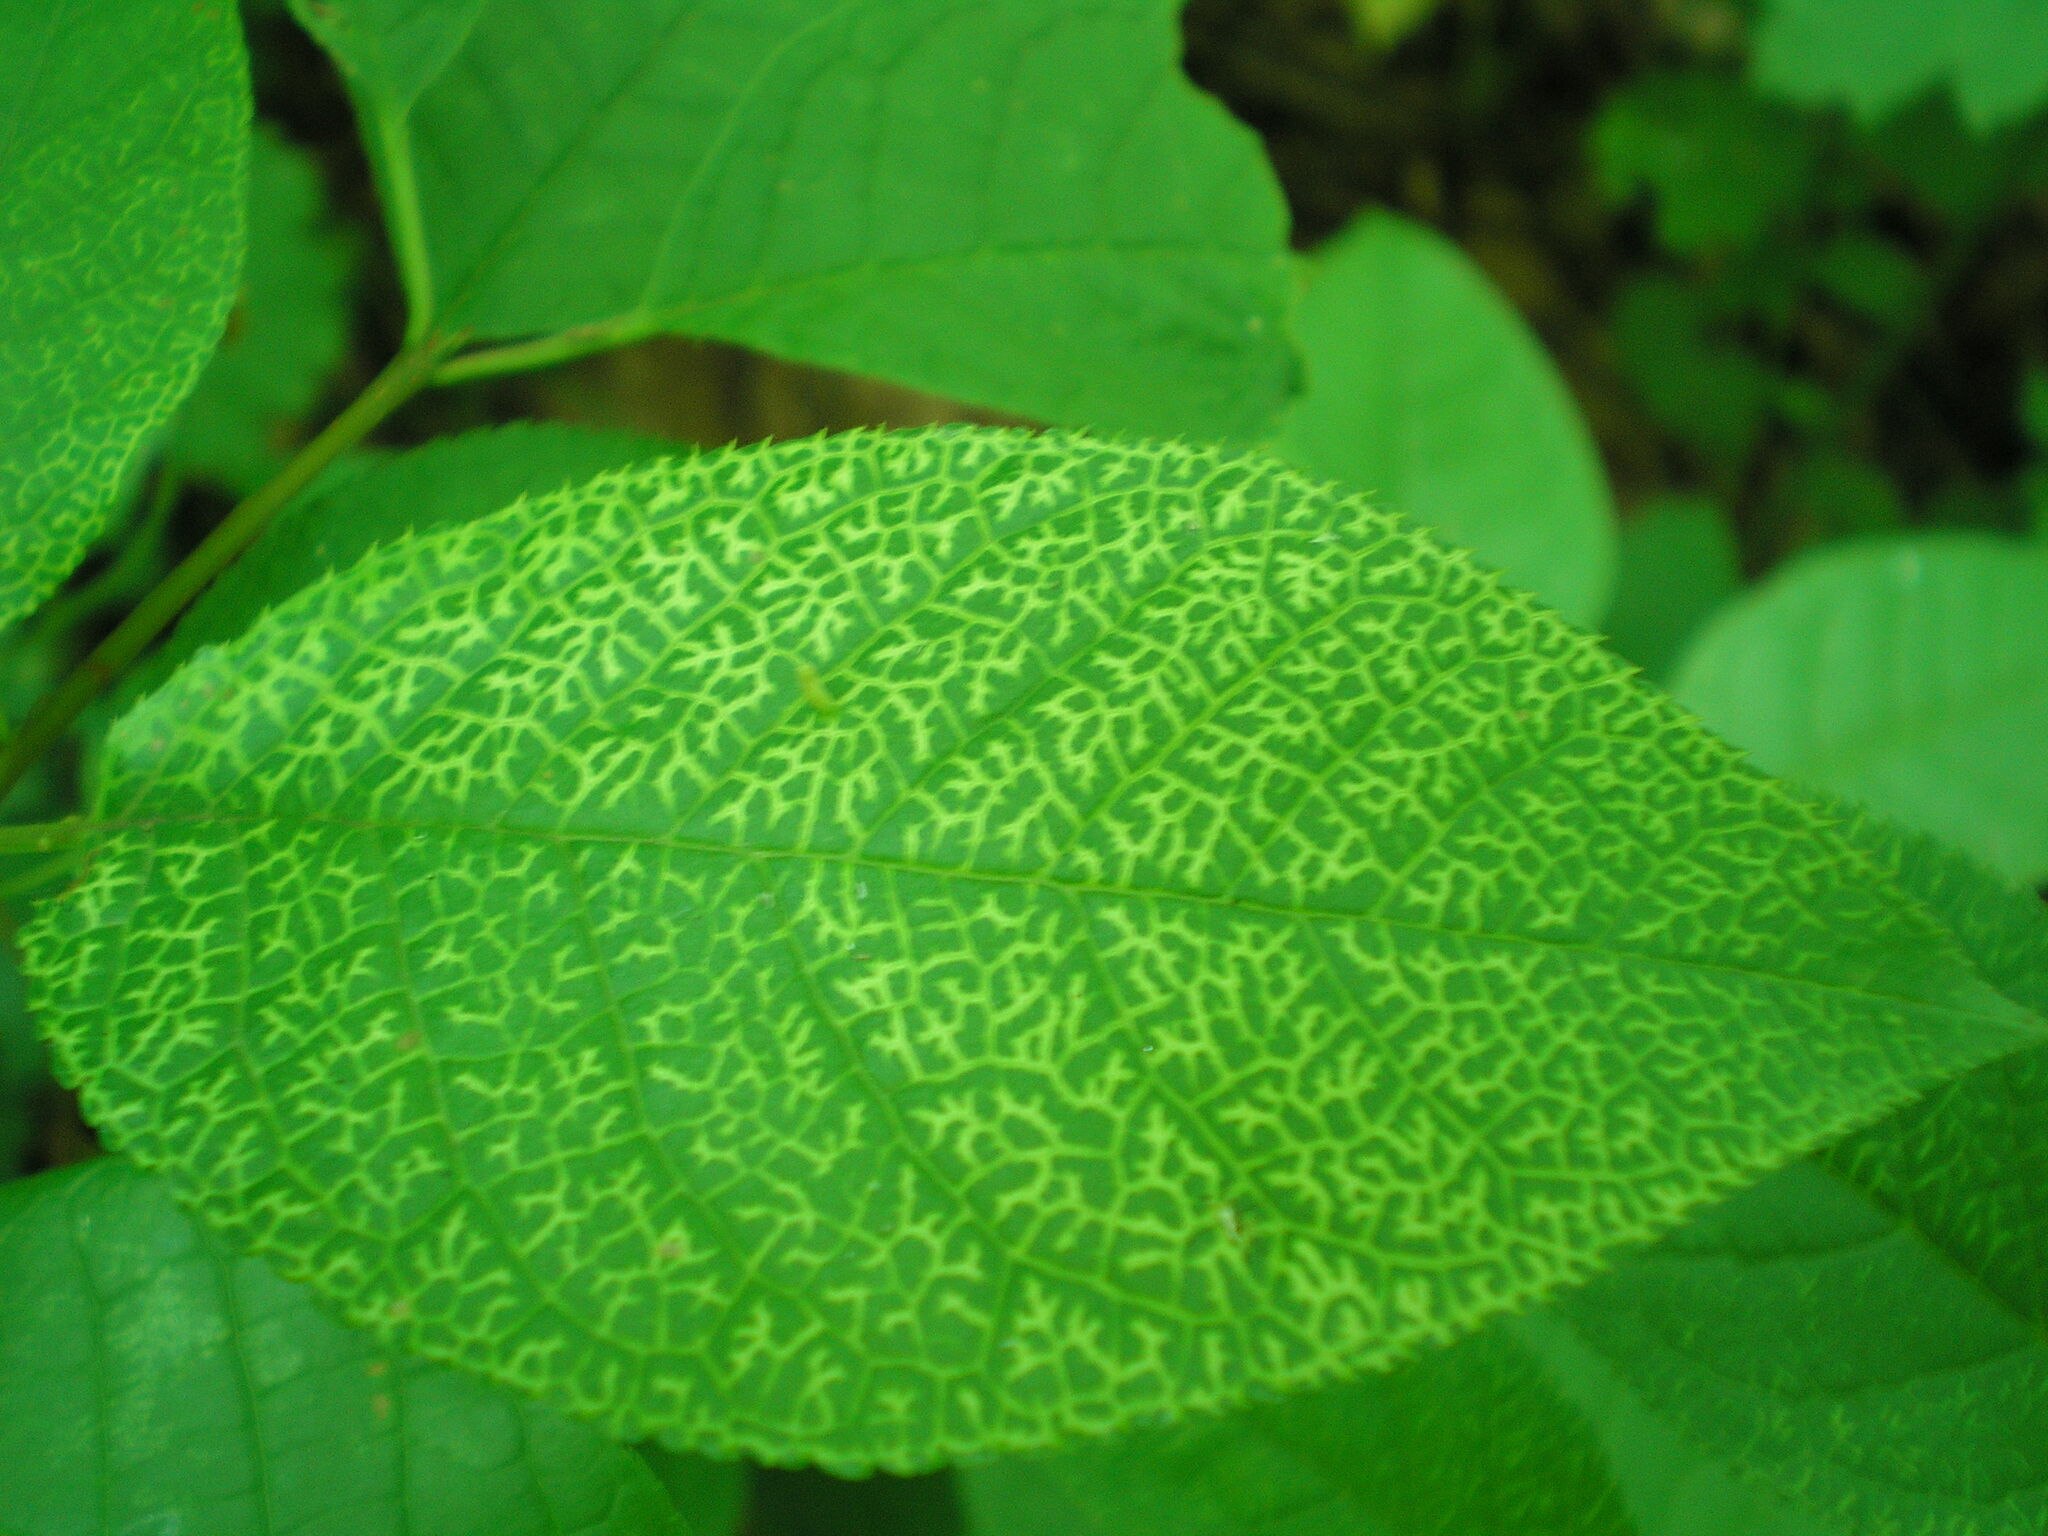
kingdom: Plantae
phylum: Tracheophyta
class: Magnoliopsida
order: Rosales
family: Rosaceae
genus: Prunus
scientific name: Prunus padus
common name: Bird cherry
